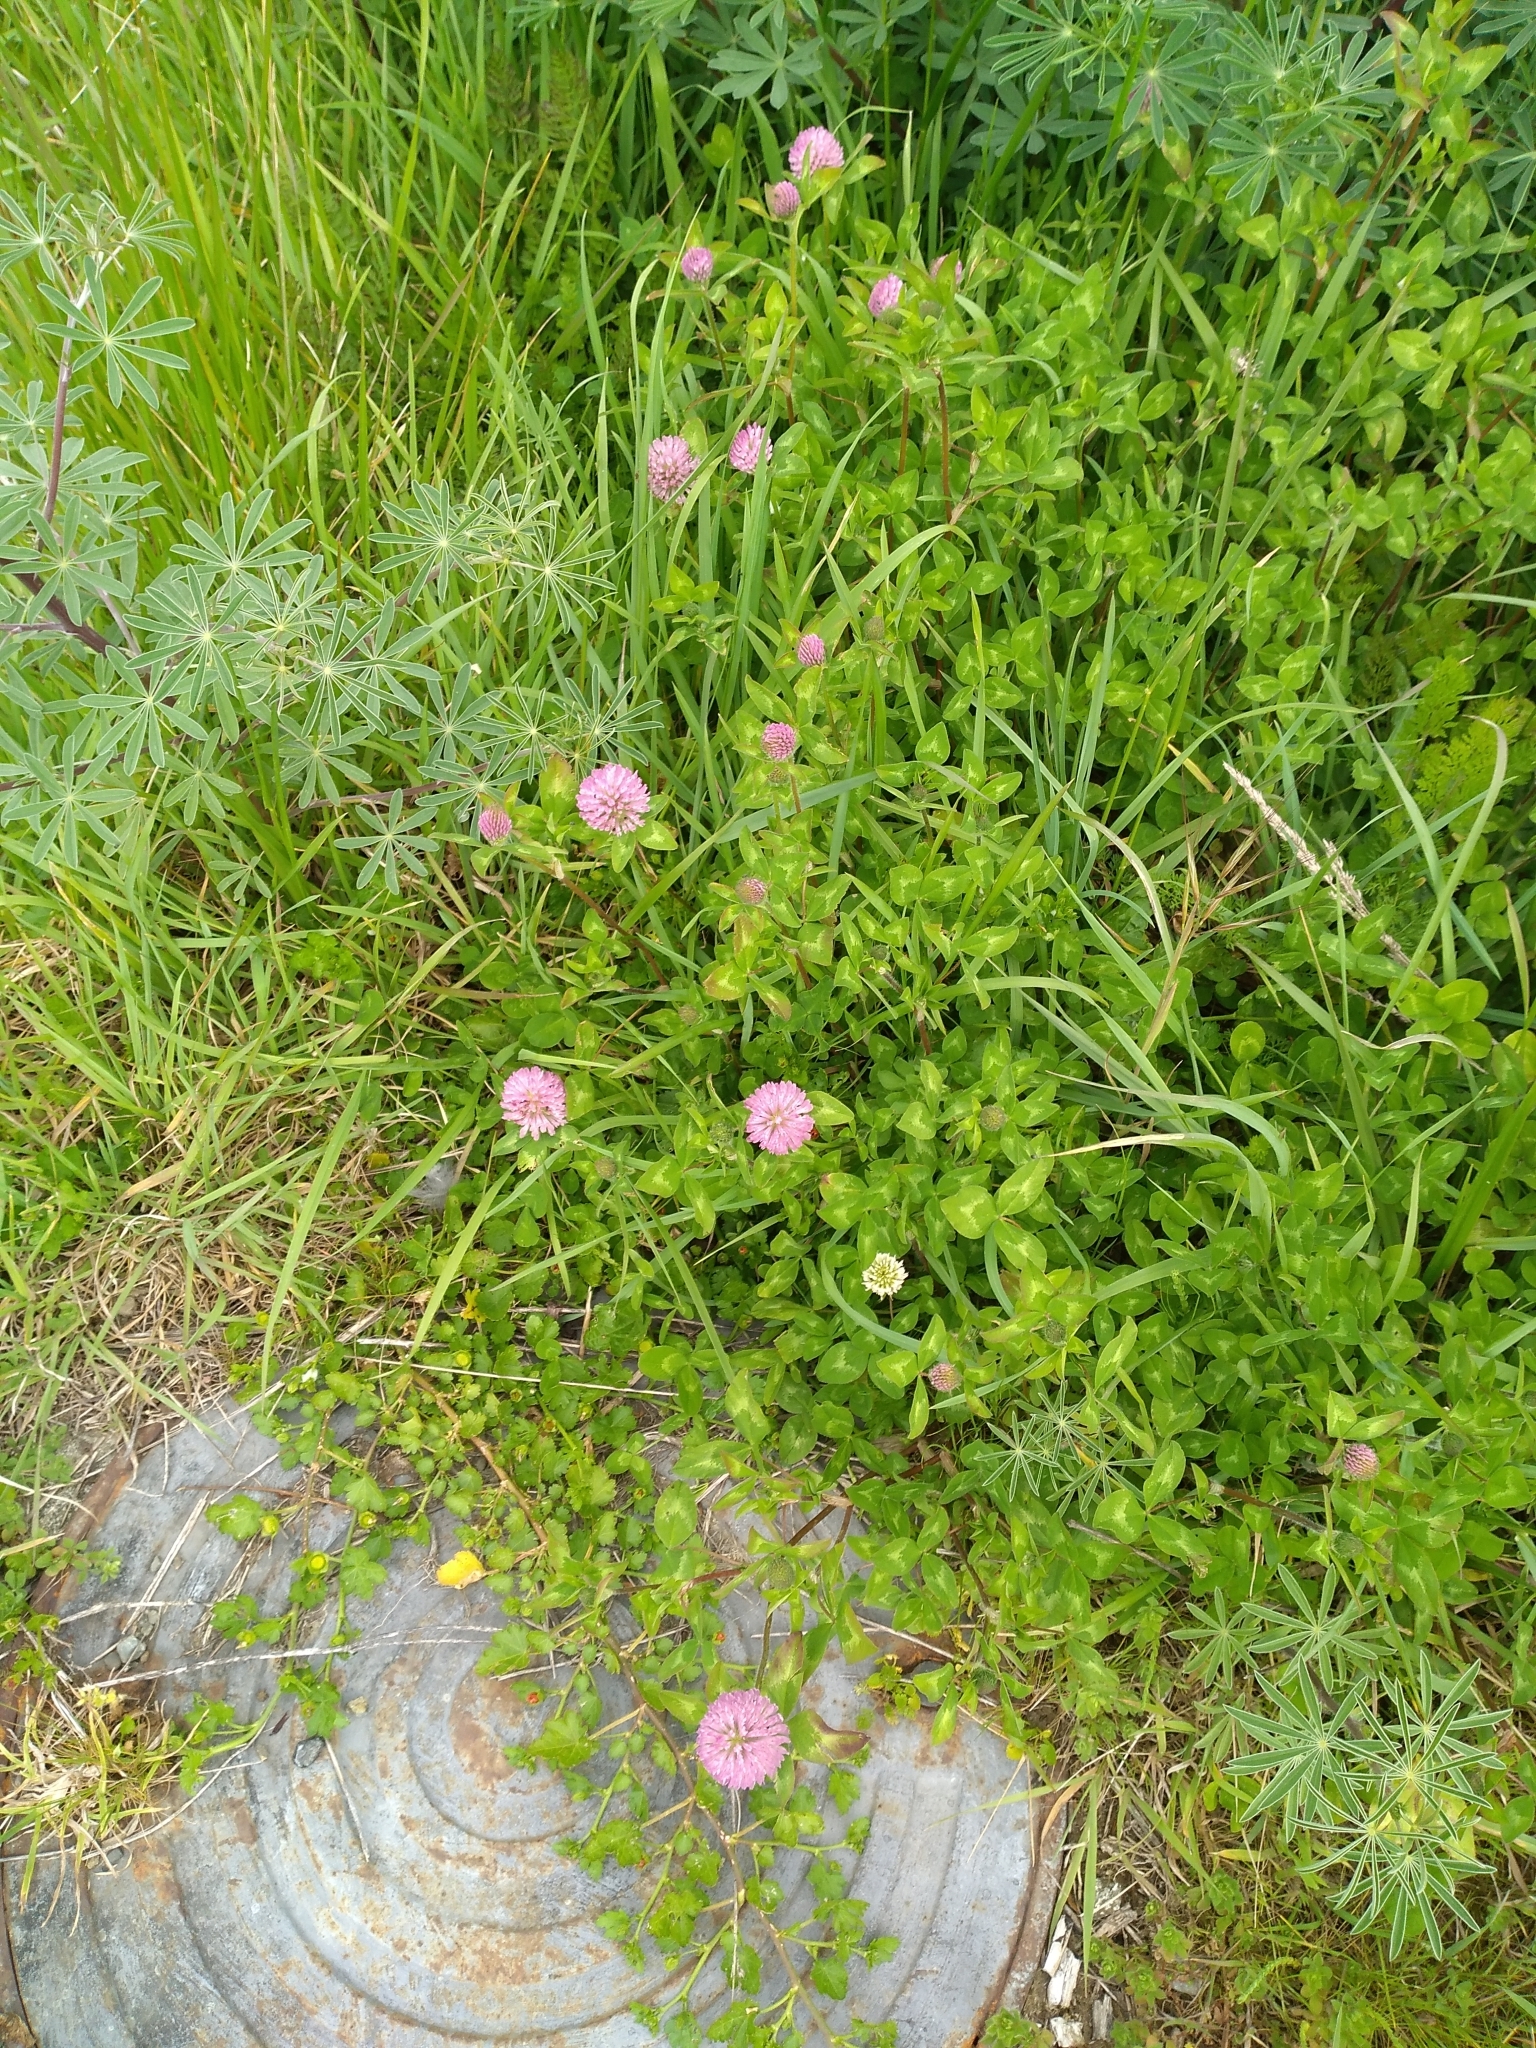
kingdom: Plantae
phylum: Tracheophyta
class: Magnoliopsida
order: Fabales
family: Fabaceae
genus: Trifolium
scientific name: Trifolium pratense
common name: Red clover
